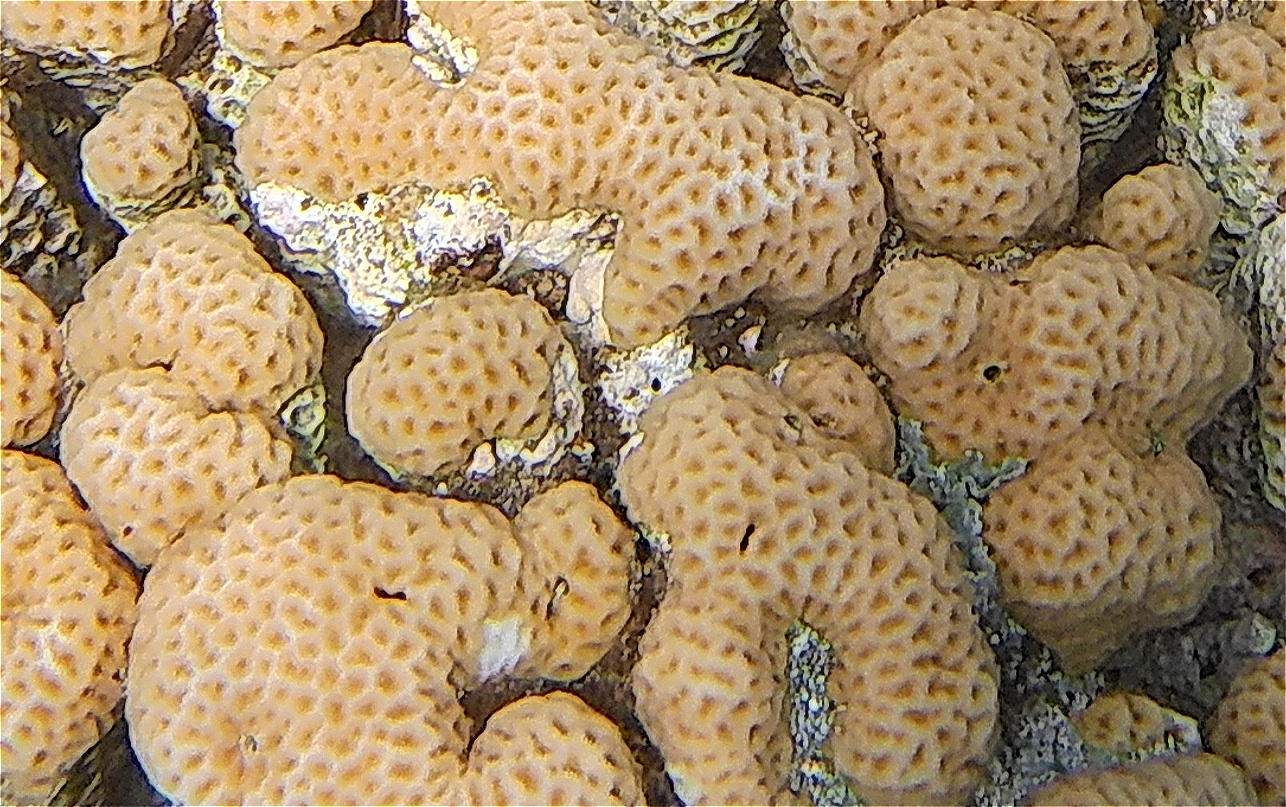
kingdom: Animalia
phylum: Cnidaria
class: Anthozoa
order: Scleractinia
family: Merulinidae
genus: Goniastrea
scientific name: Goniastrea pectinata
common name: Lesser star coral
